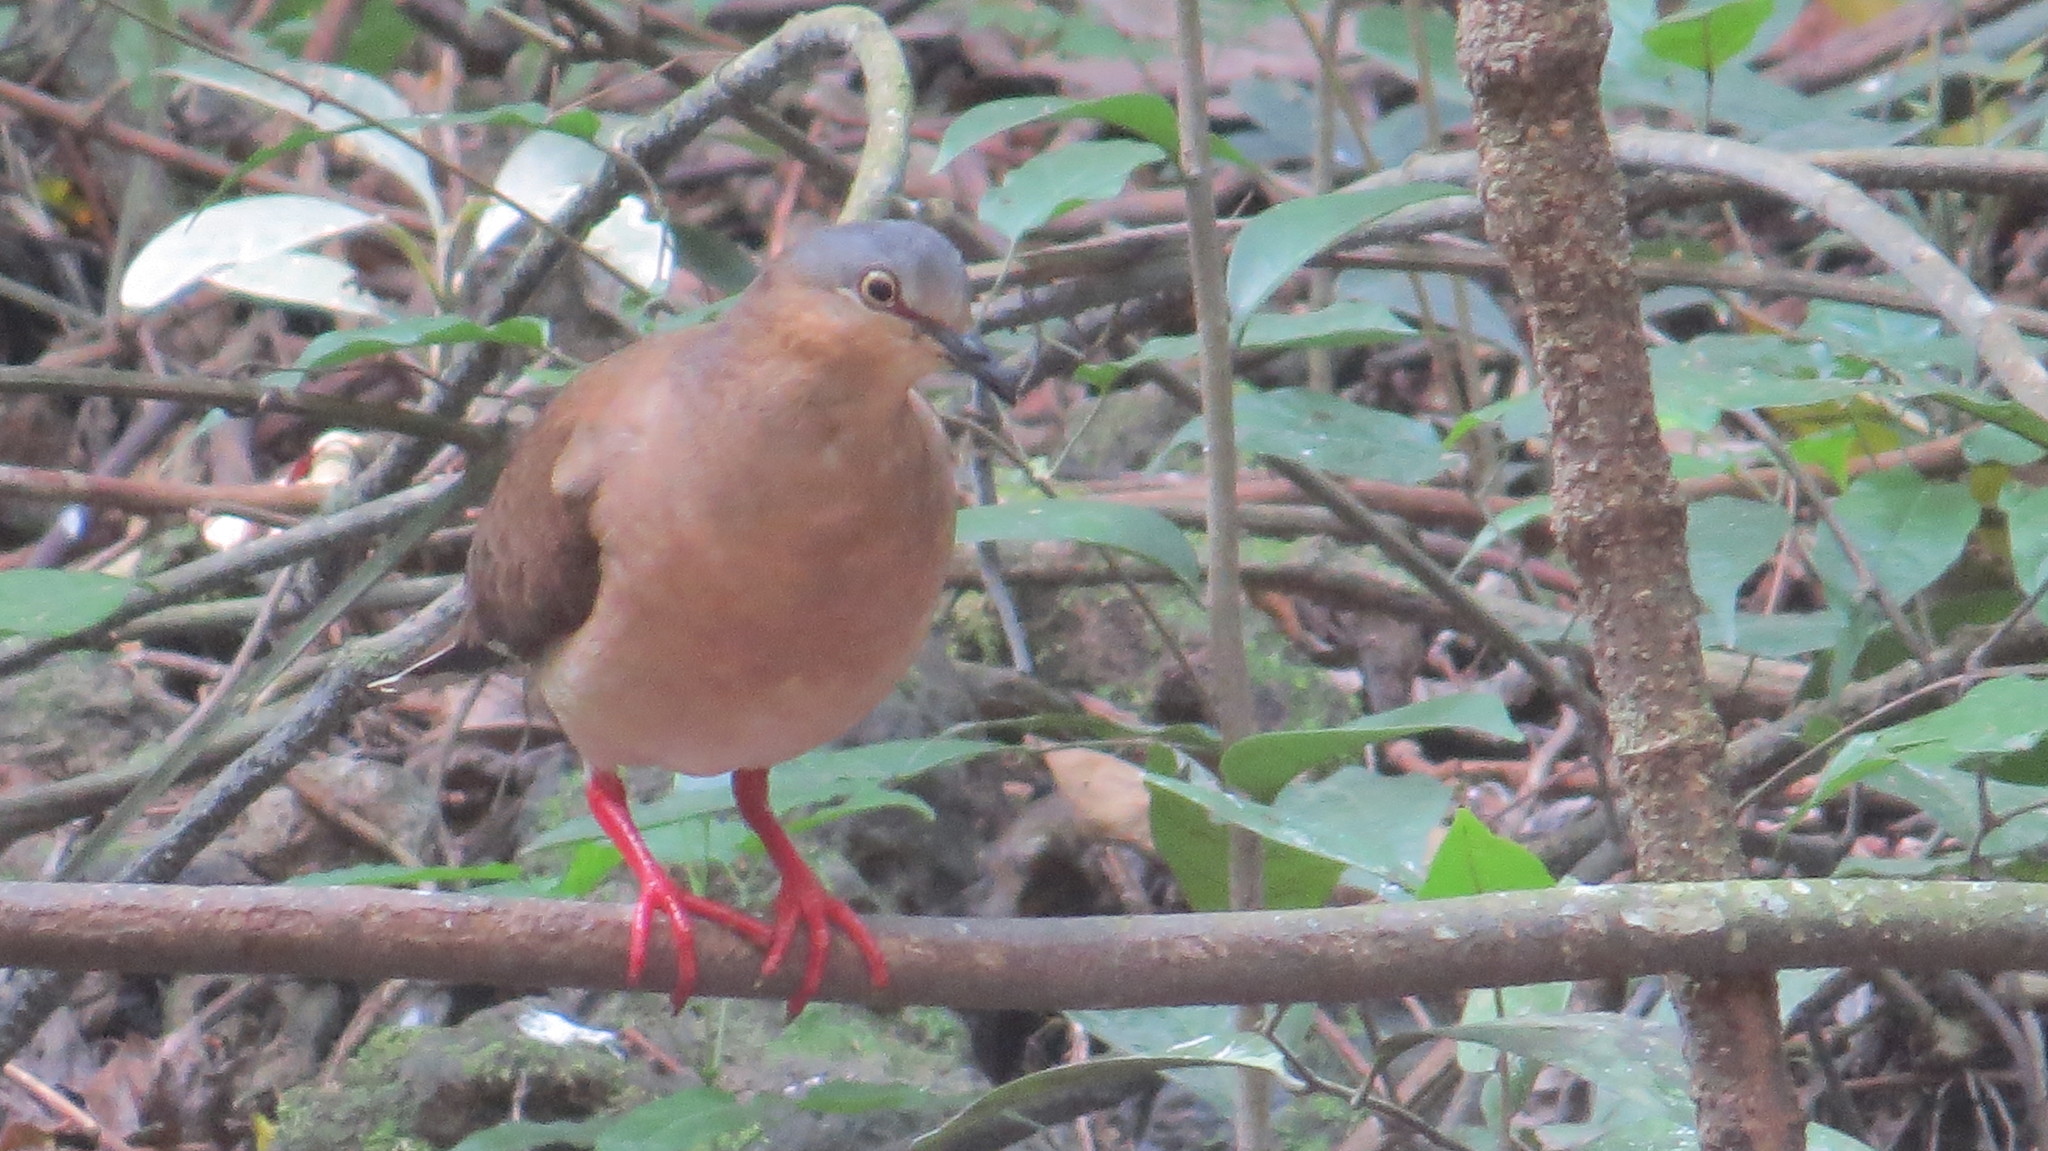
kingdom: Animalia
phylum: Chordata
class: Aves
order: Columbiformes
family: Columbidae
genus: Leptotila
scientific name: Leptotila plumbeiceps
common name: Grey-headed dove
